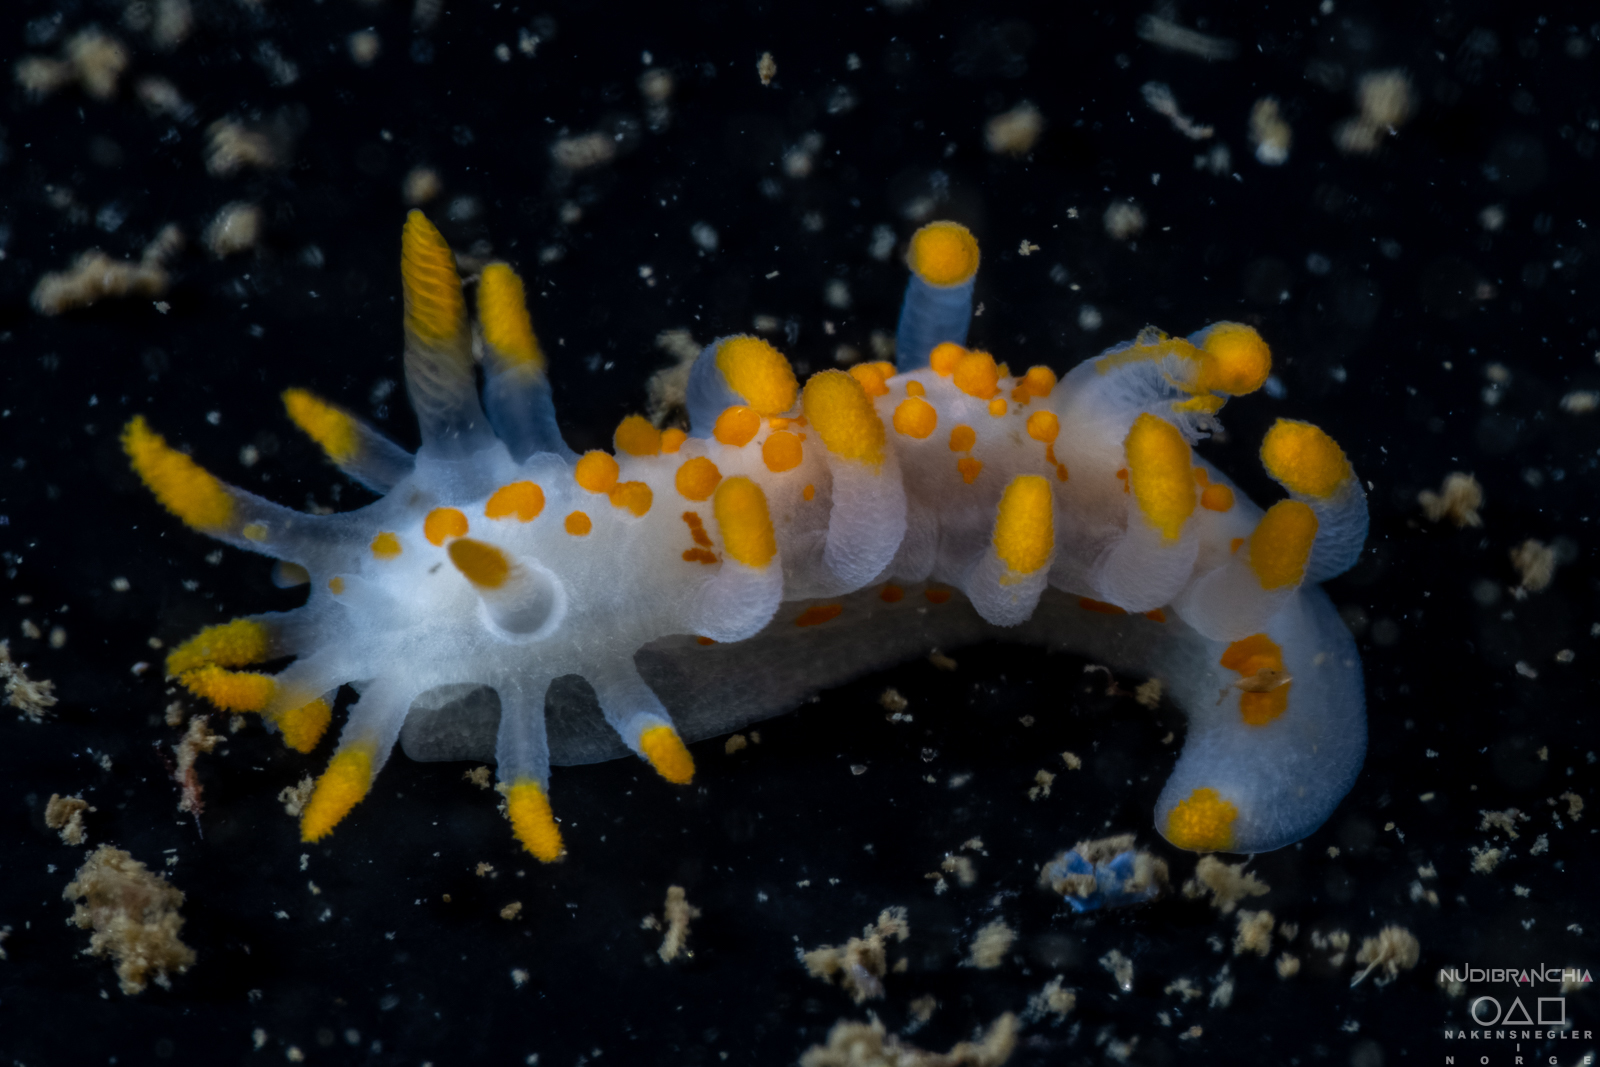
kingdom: Animalia
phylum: Mollusca
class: Gastropoda
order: Nudibranchia
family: Polyceridae
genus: Limacia
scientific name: Limacia clavigera
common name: Orange-clubbed sea slug
